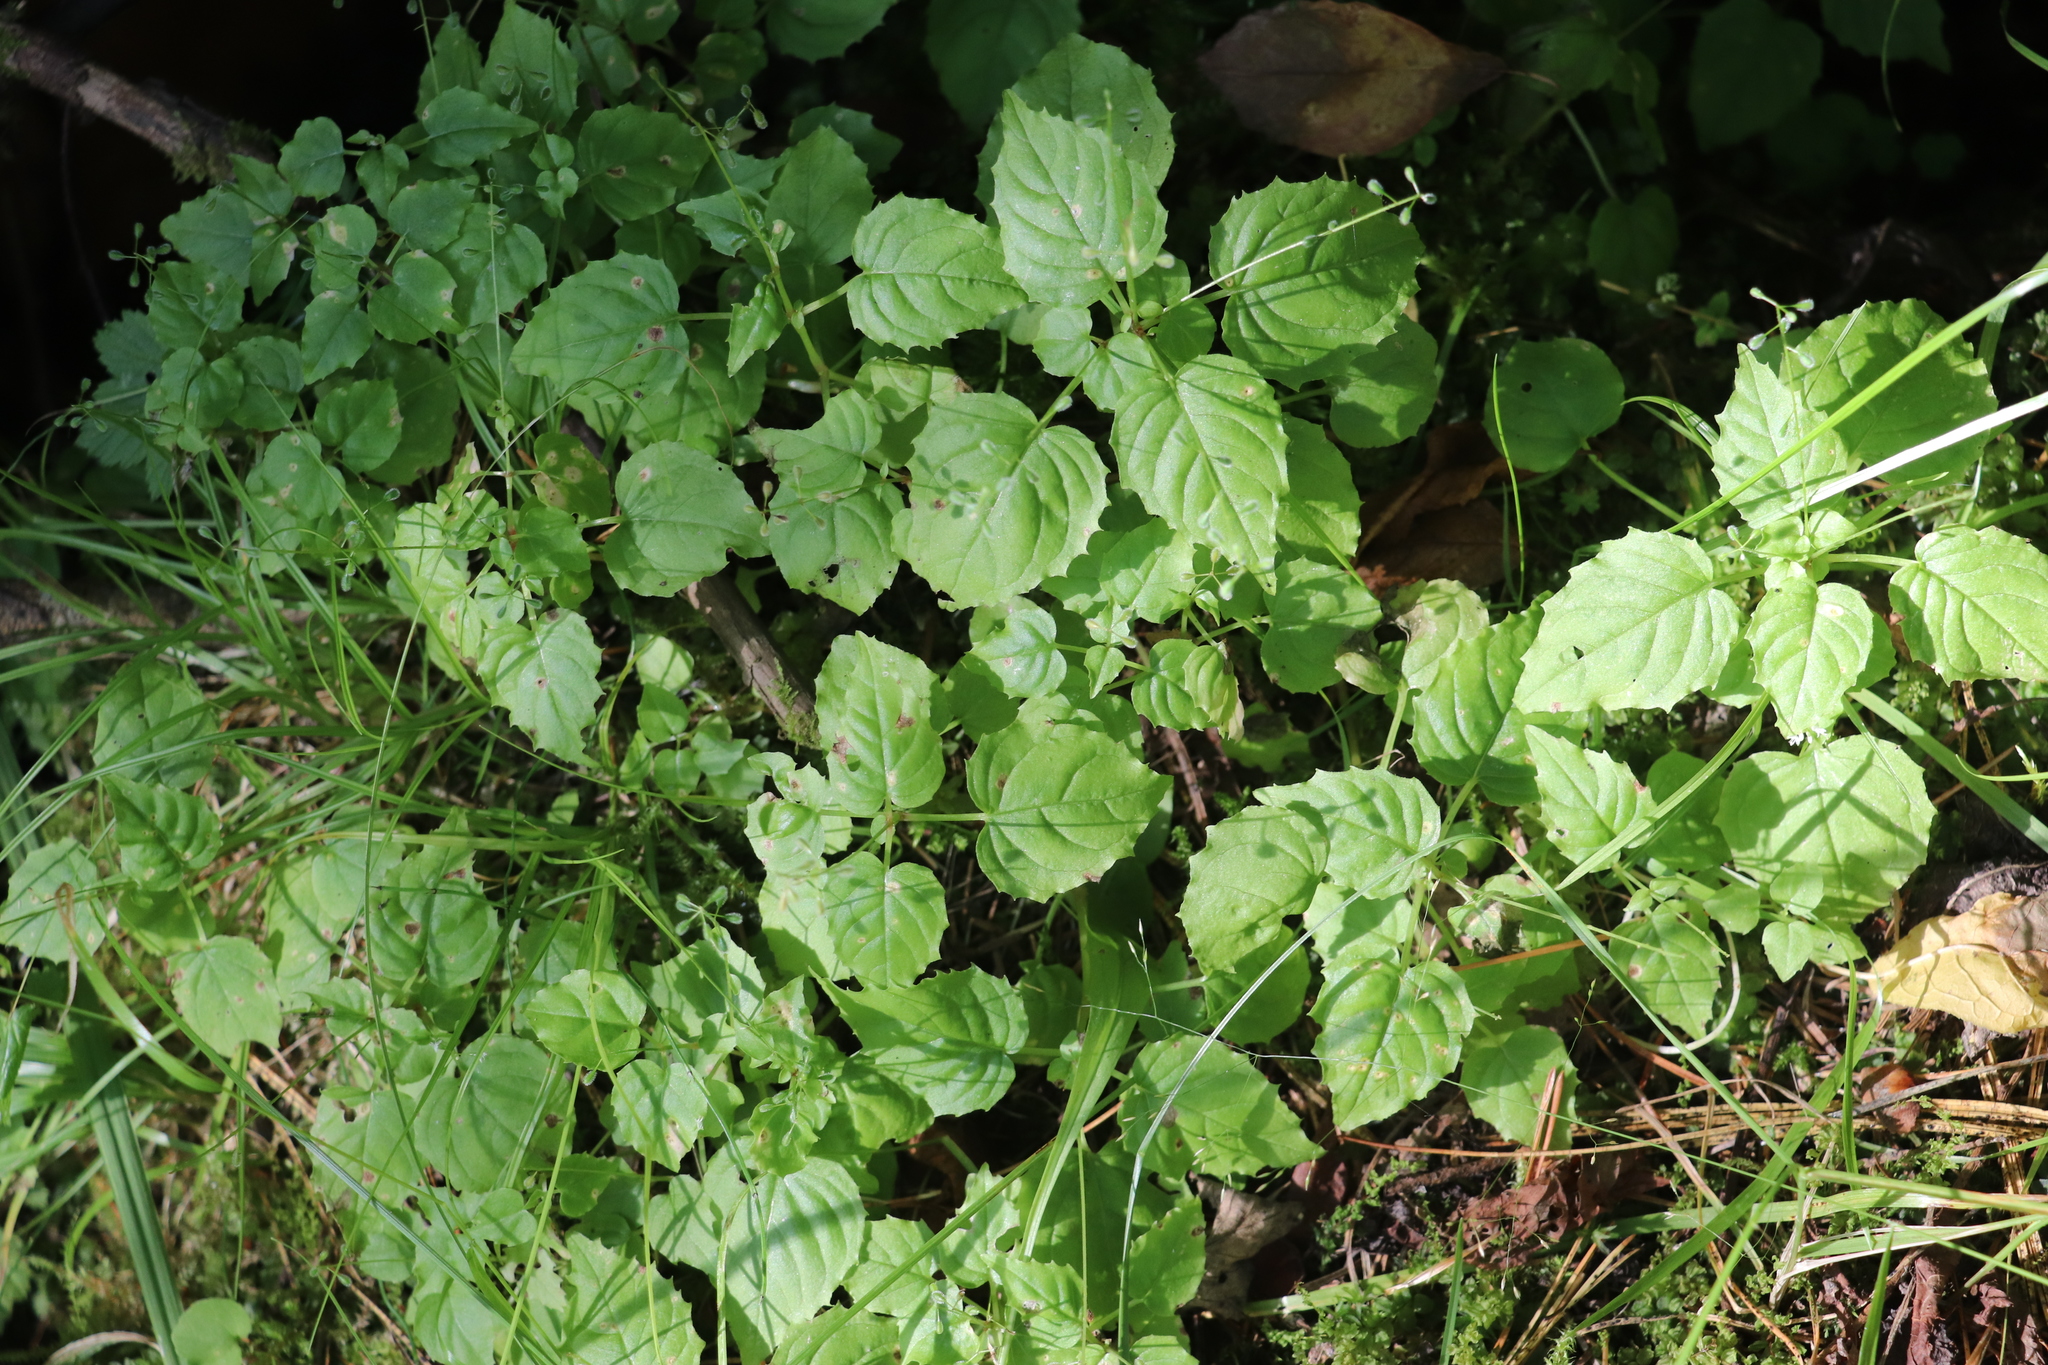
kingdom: Plantae
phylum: Tracheophyta
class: Magnoliopsida
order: Myrtales
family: Onagraceae
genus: Circaea
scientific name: Circaea alpina
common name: Alpine enchanter's-nightshade
